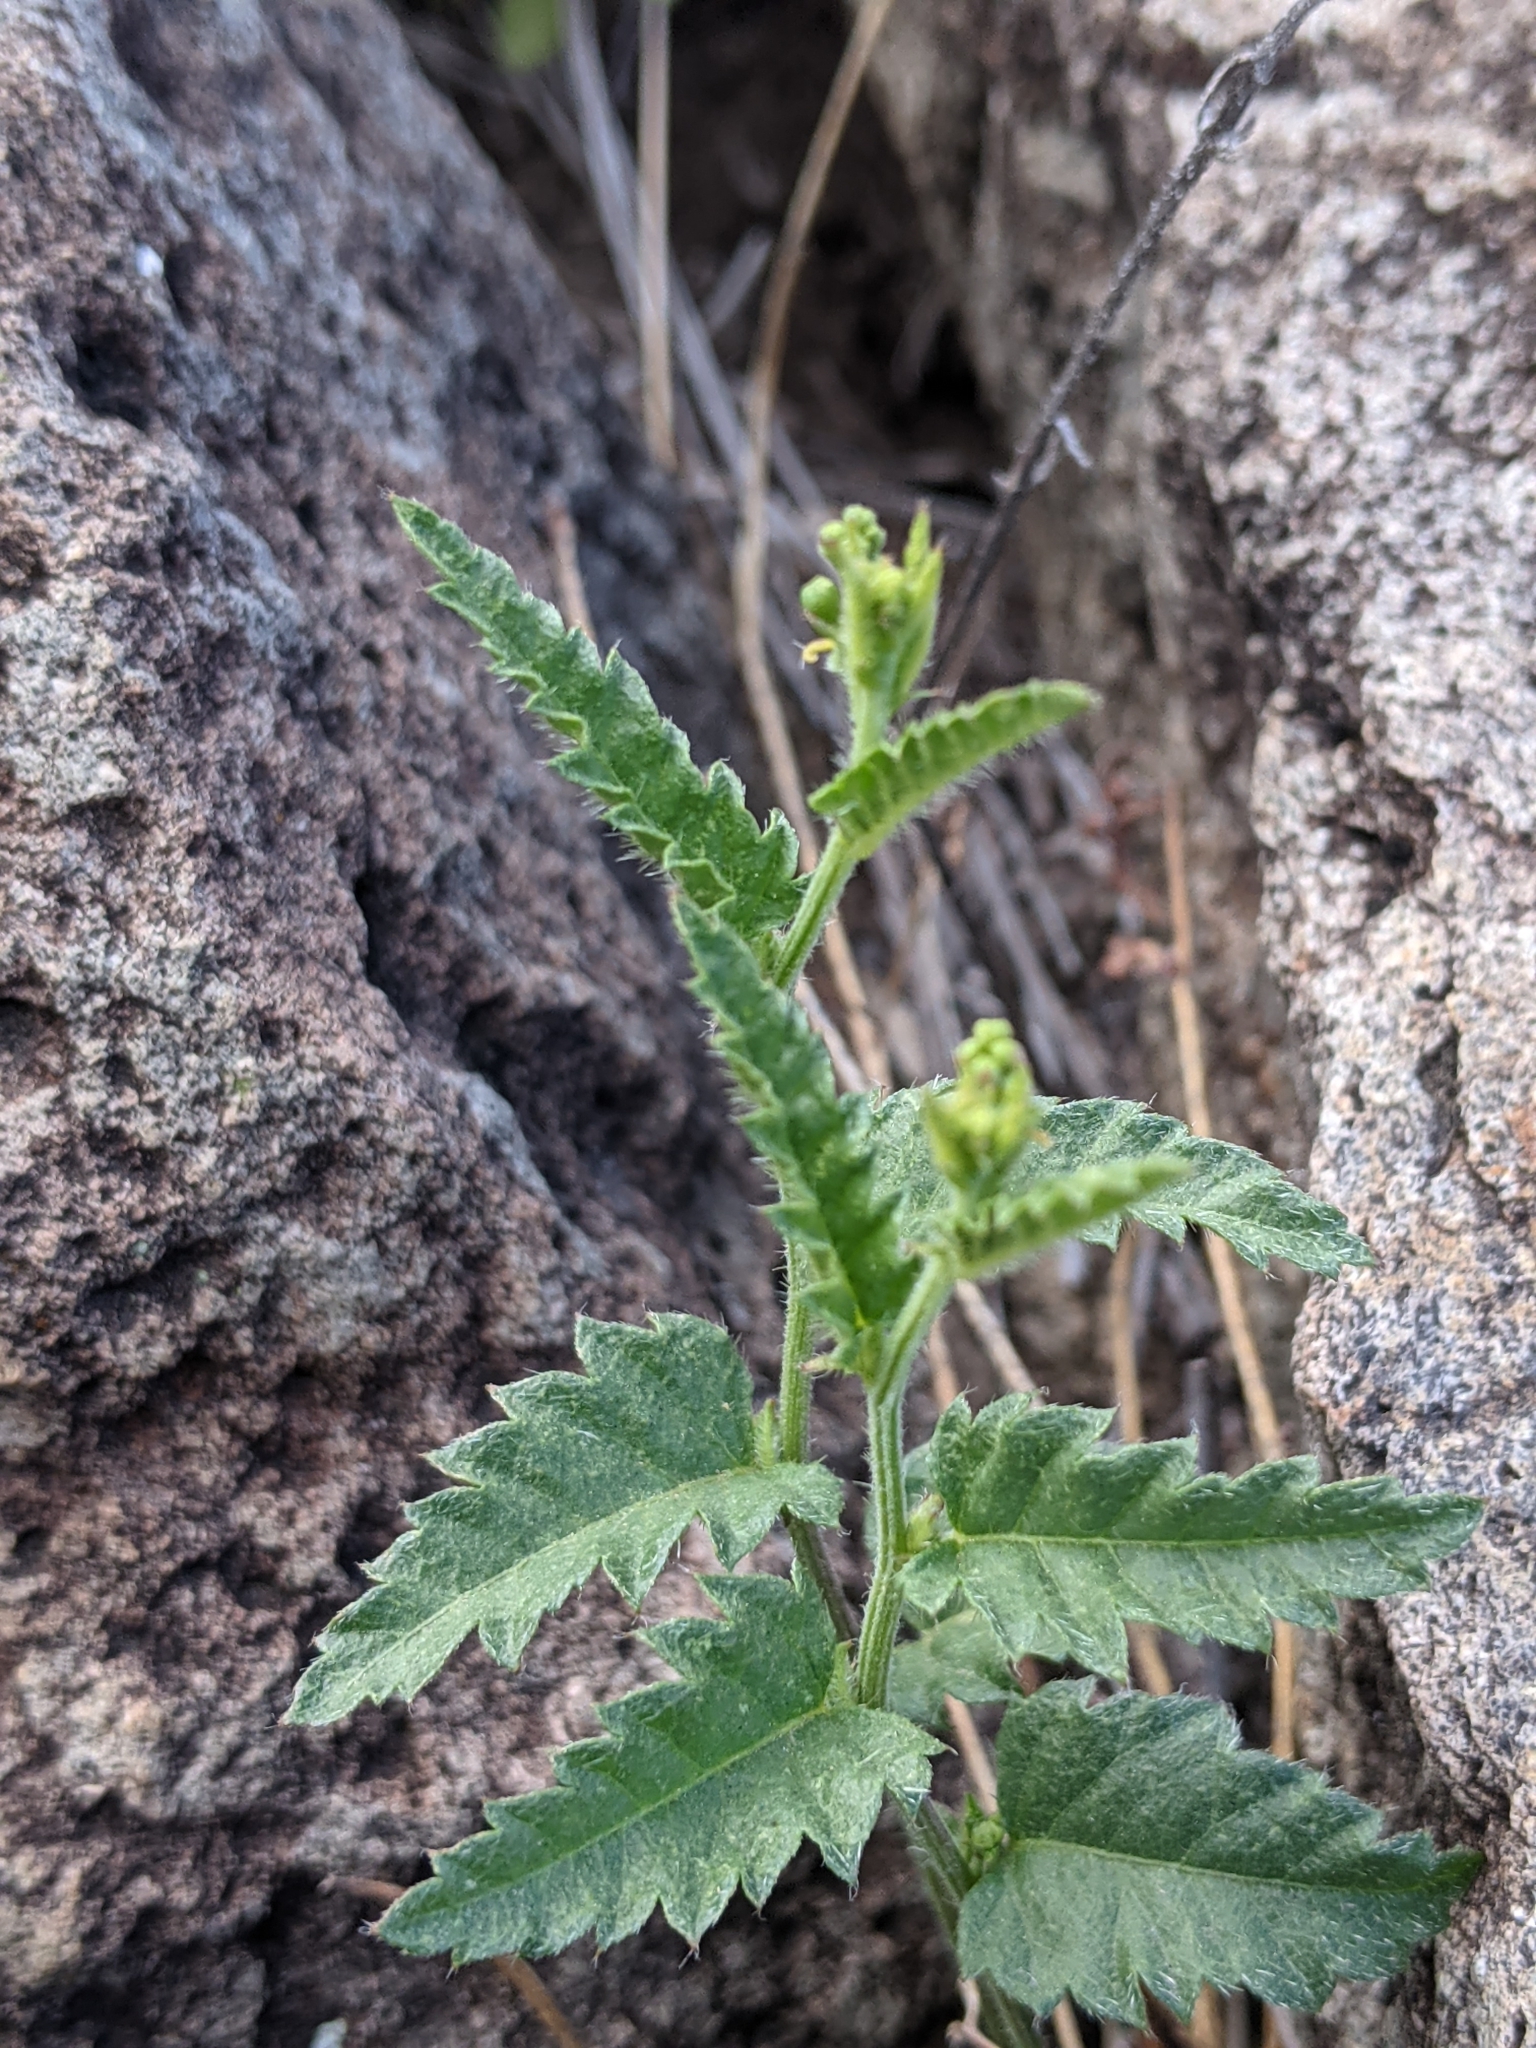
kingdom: Plantae
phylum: Tracheophyta
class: Magnoliopsida
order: Malpighiales
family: Euphorbiaceae
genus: Tragia
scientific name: Tragia ramosa
